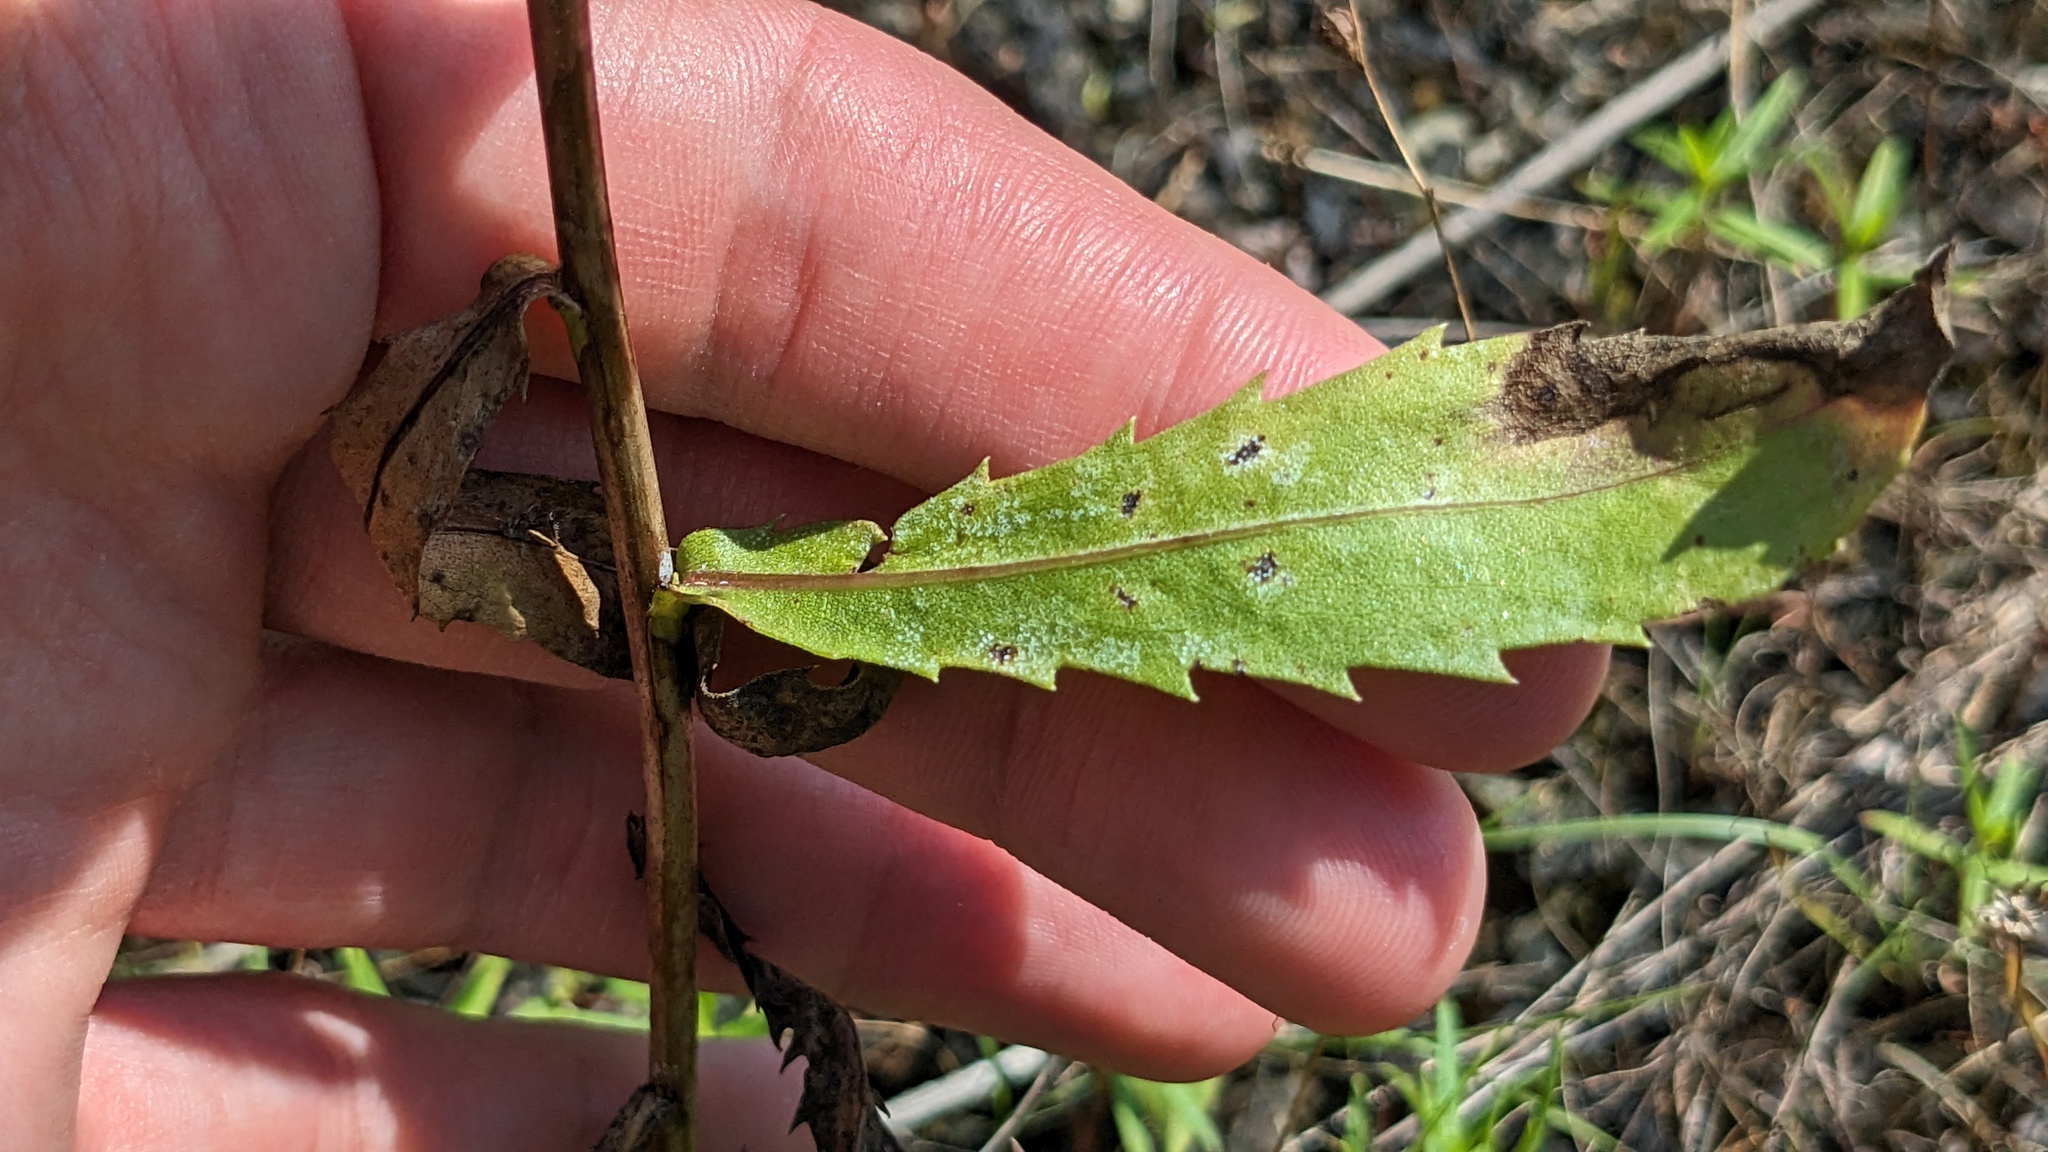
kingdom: Plantae
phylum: Tracheophyta
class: Magnoliopsida
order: Asterales
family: Asteraceae
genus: Grindelia
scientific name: Grindelia lanceolata
